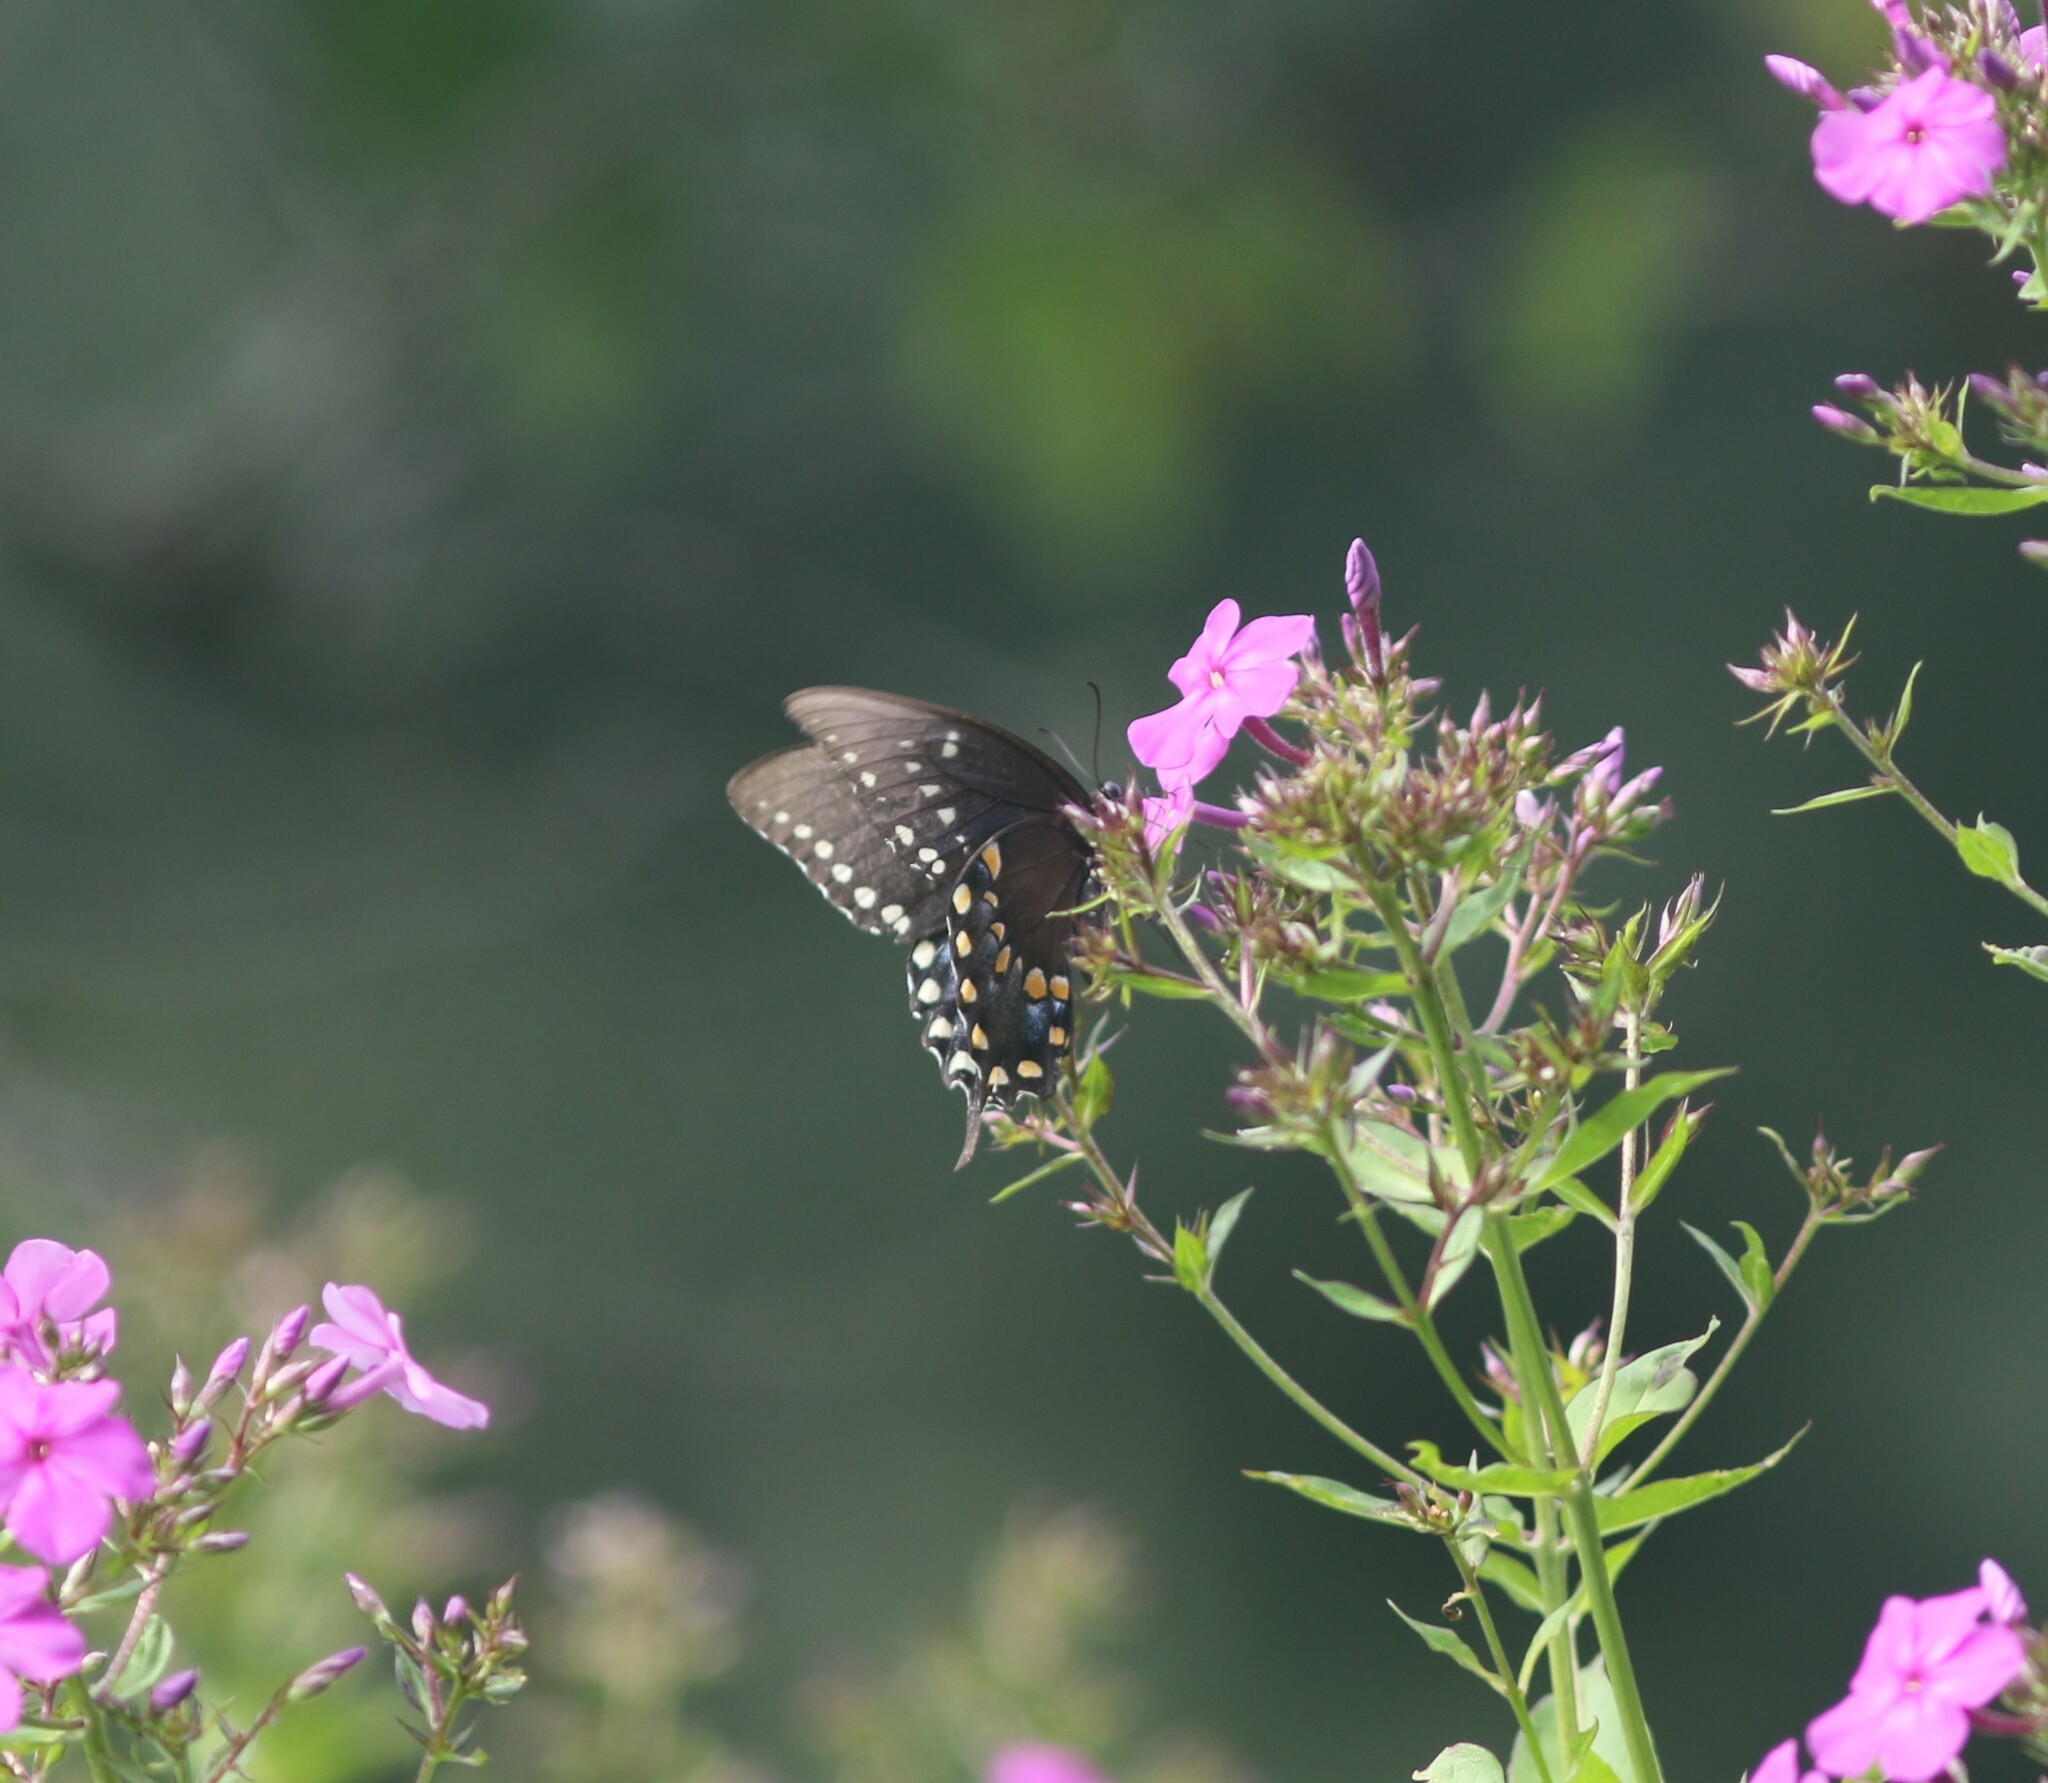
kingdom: Animalia
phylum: Arthropoda
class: Insecta
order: Lepidoptera
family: Papilionidae
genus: Papilio
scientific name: Papilio troilus
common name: Spicebush swallowtail
